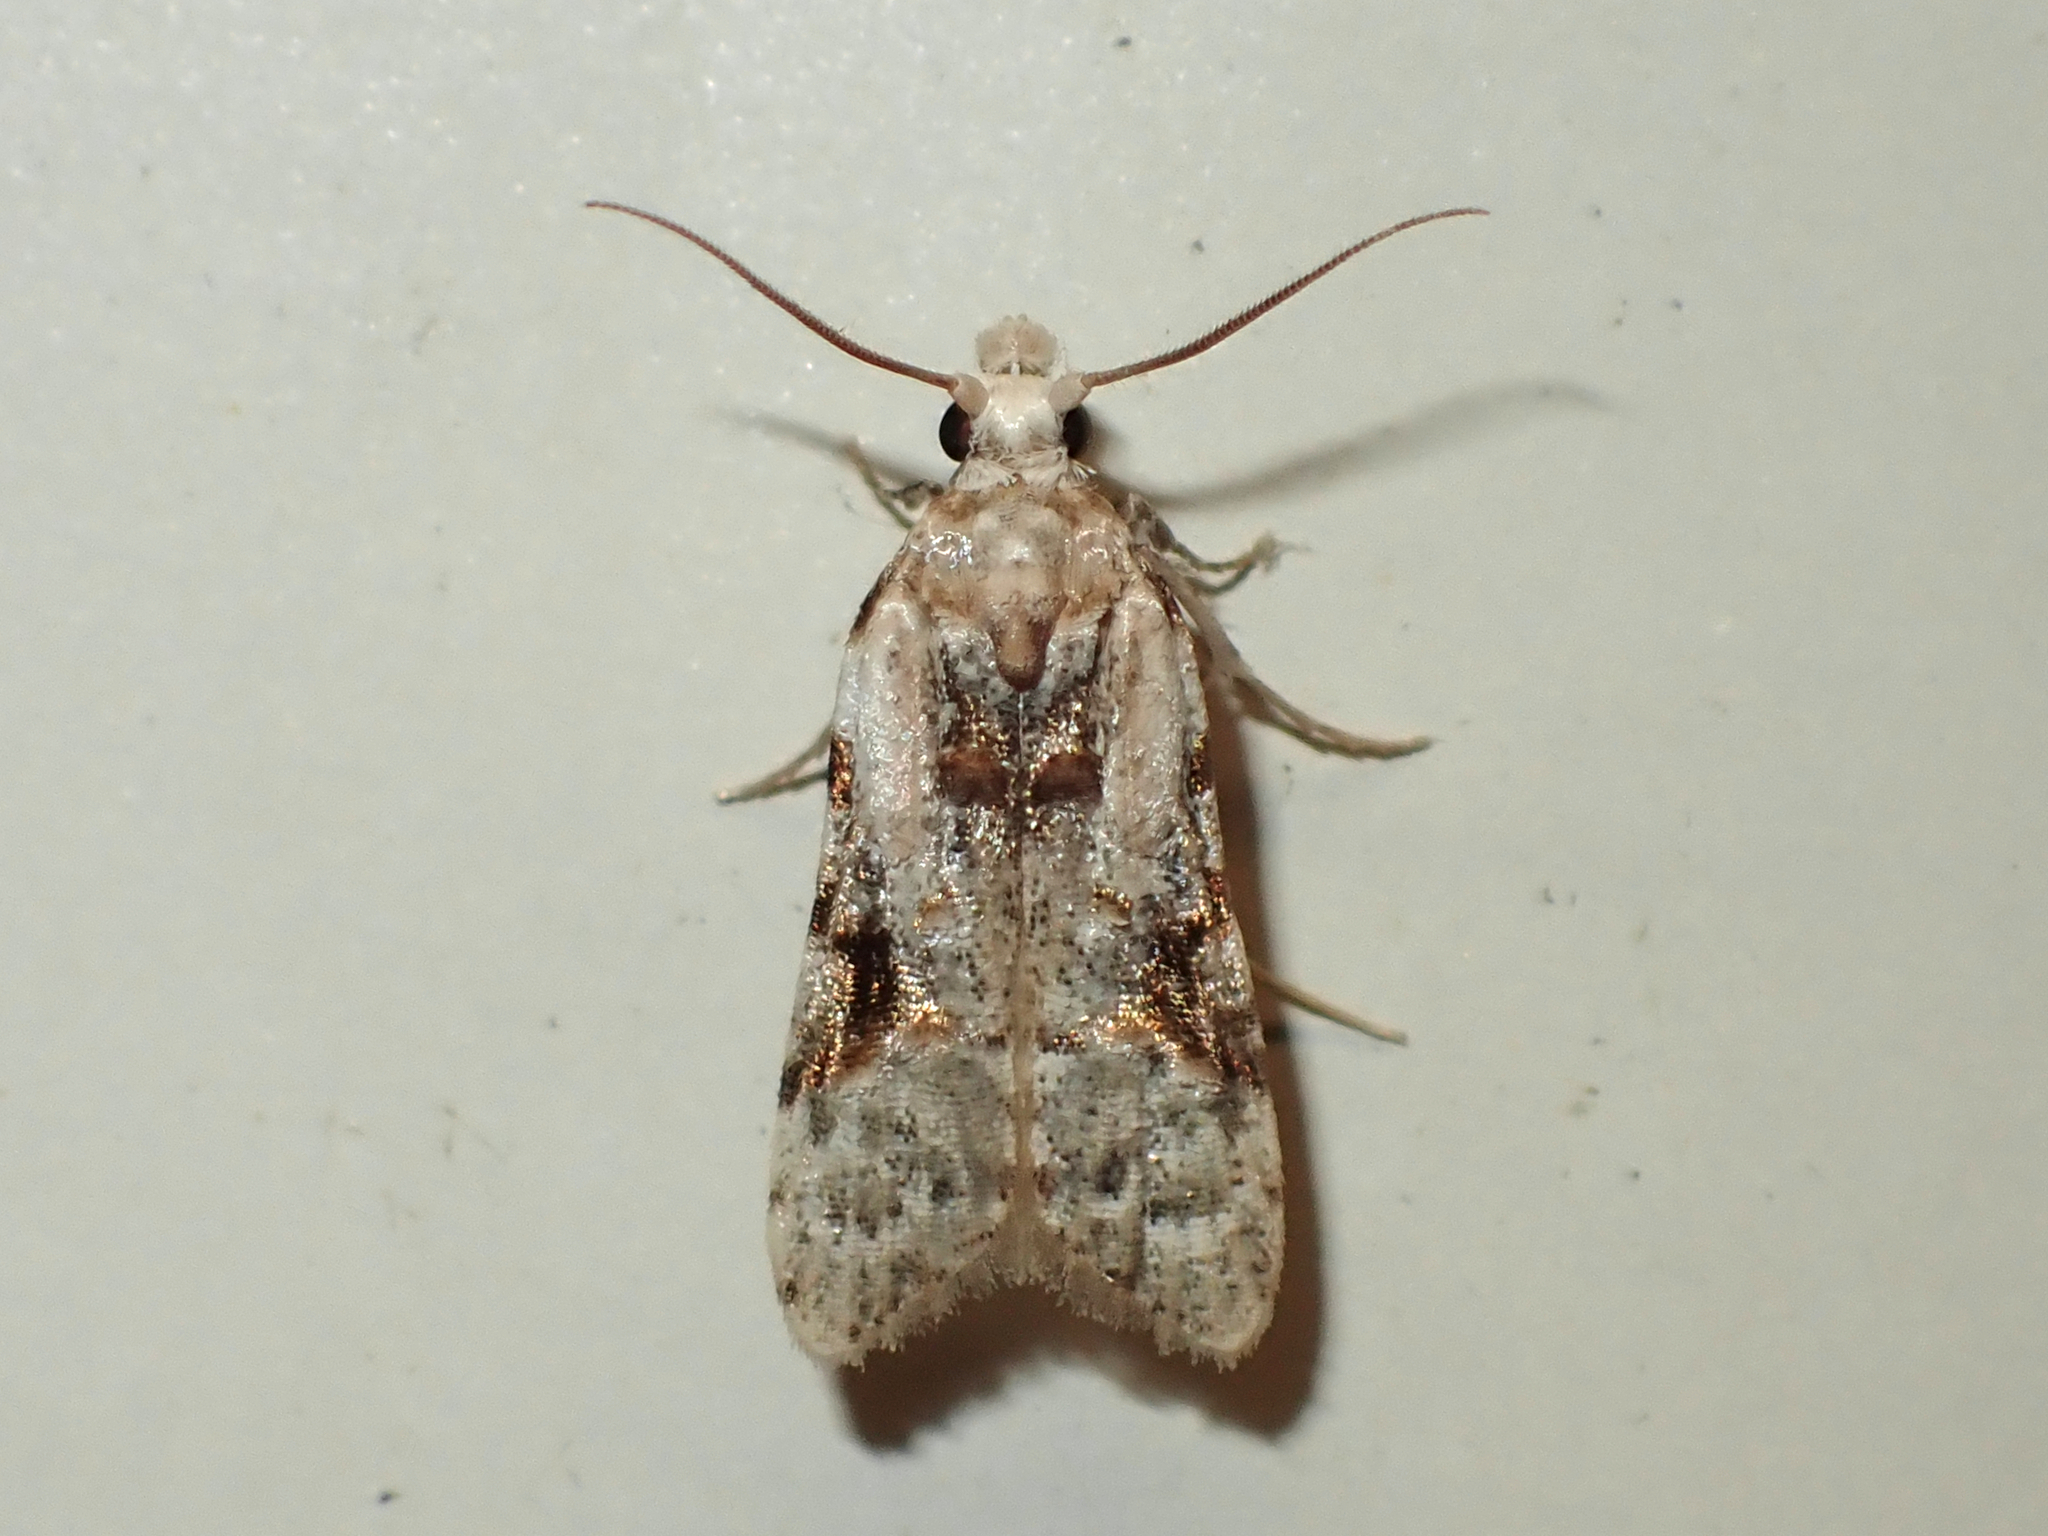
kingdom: Animalia
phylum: Arthropoda
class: Insecta
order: Lepidoptera
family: Carposinidae
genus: Coscinoptycha
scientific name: Coscinoptycha improbana
